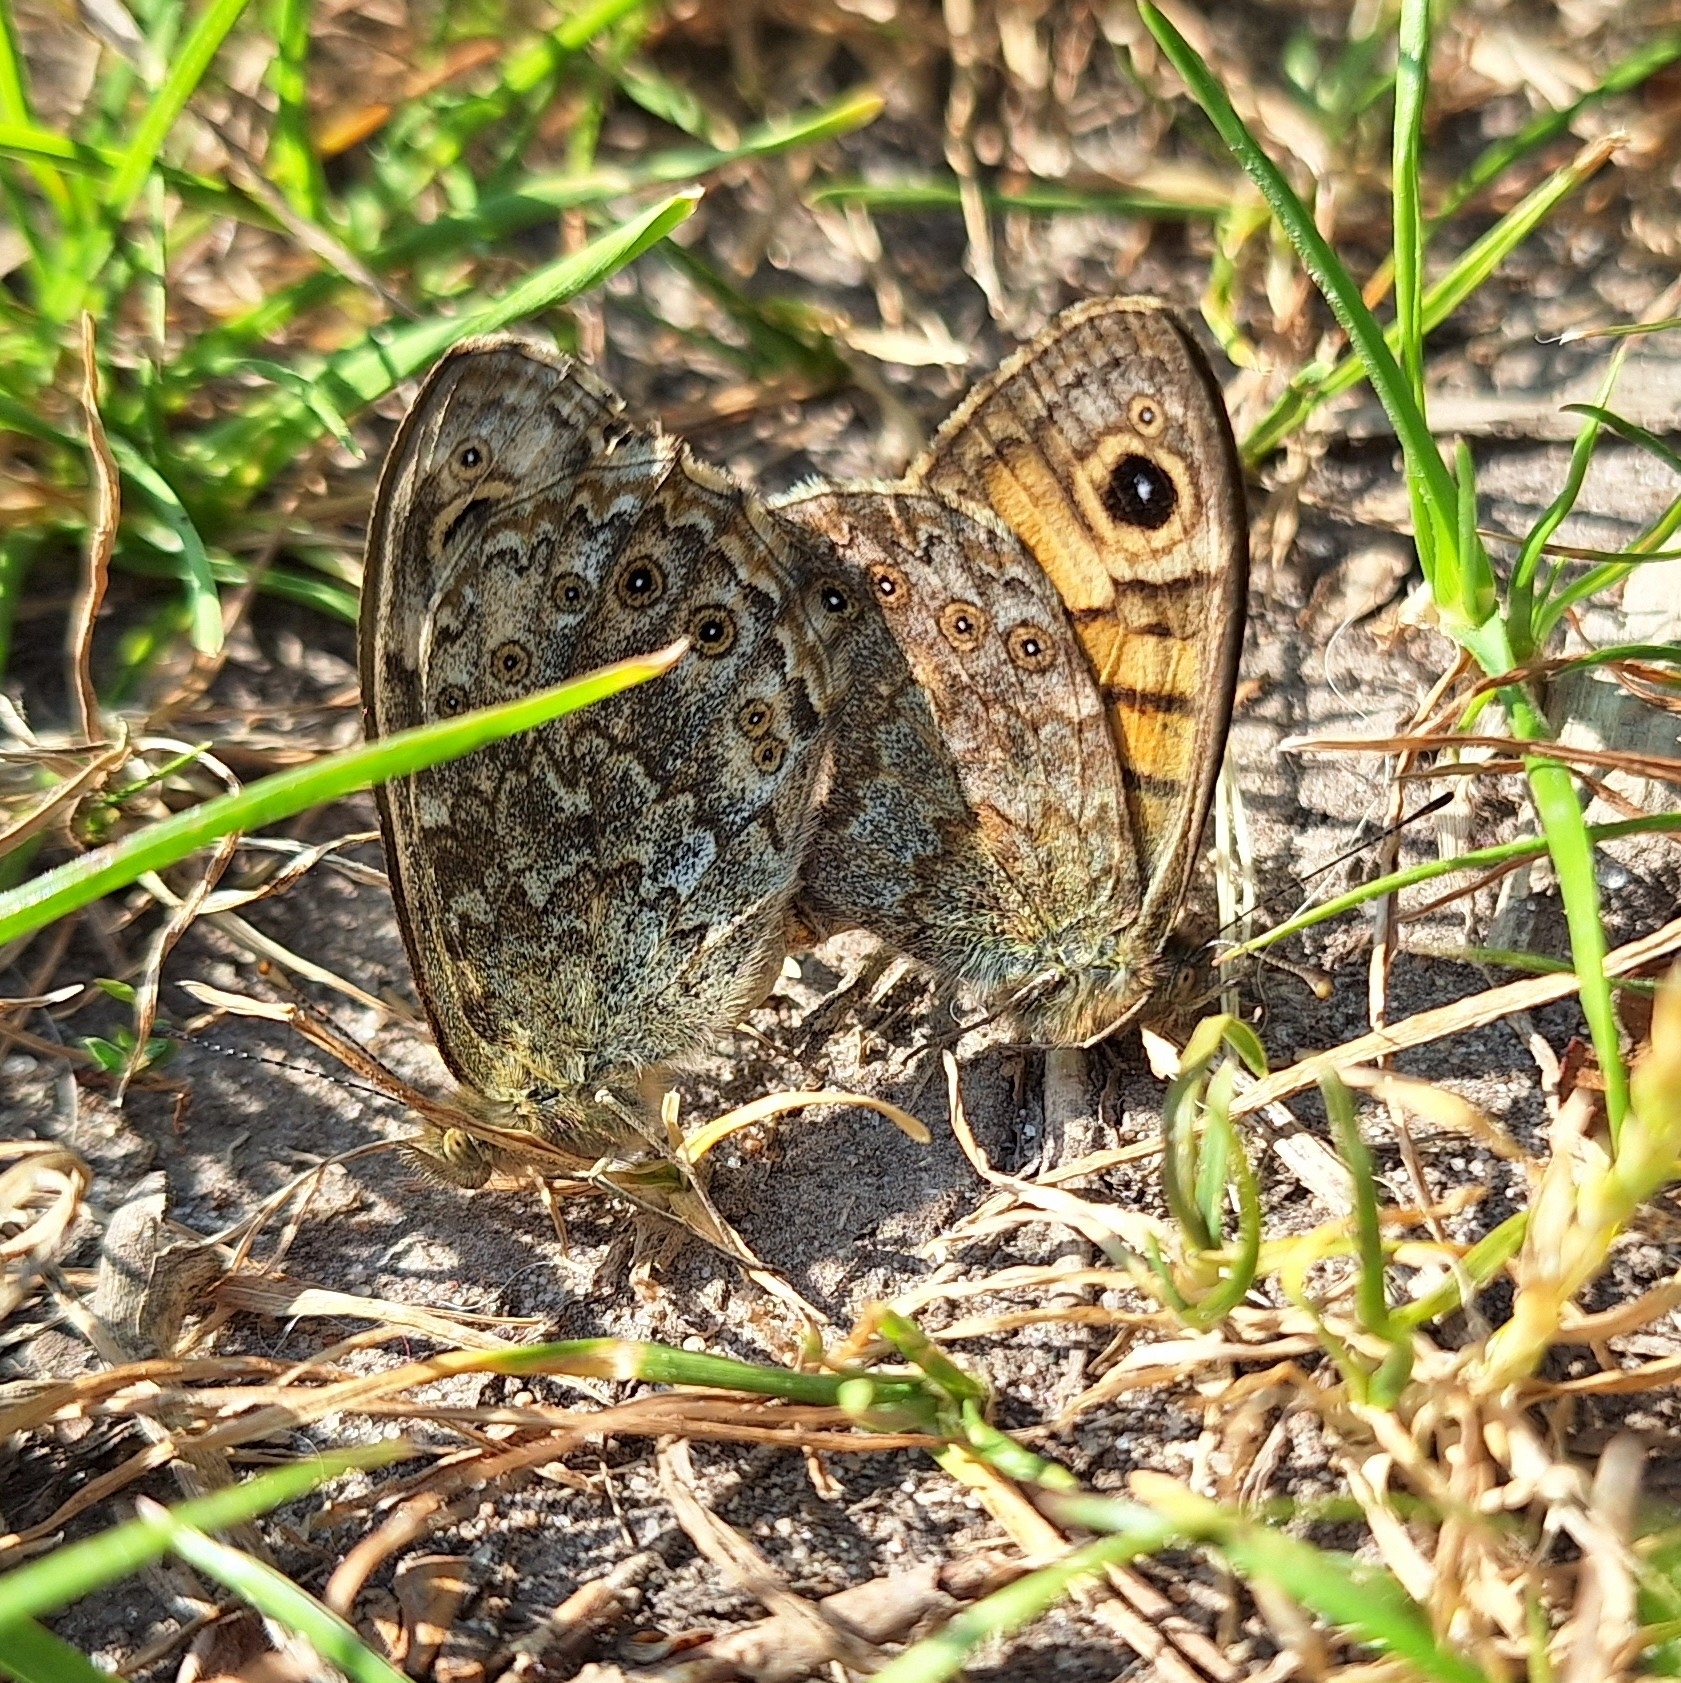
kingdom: Animalia
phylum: Arthropoda
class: Insecta
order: Lepidoptera
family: Nymphalidae
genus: Pararge
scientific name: Pararge Lasiommata megera
